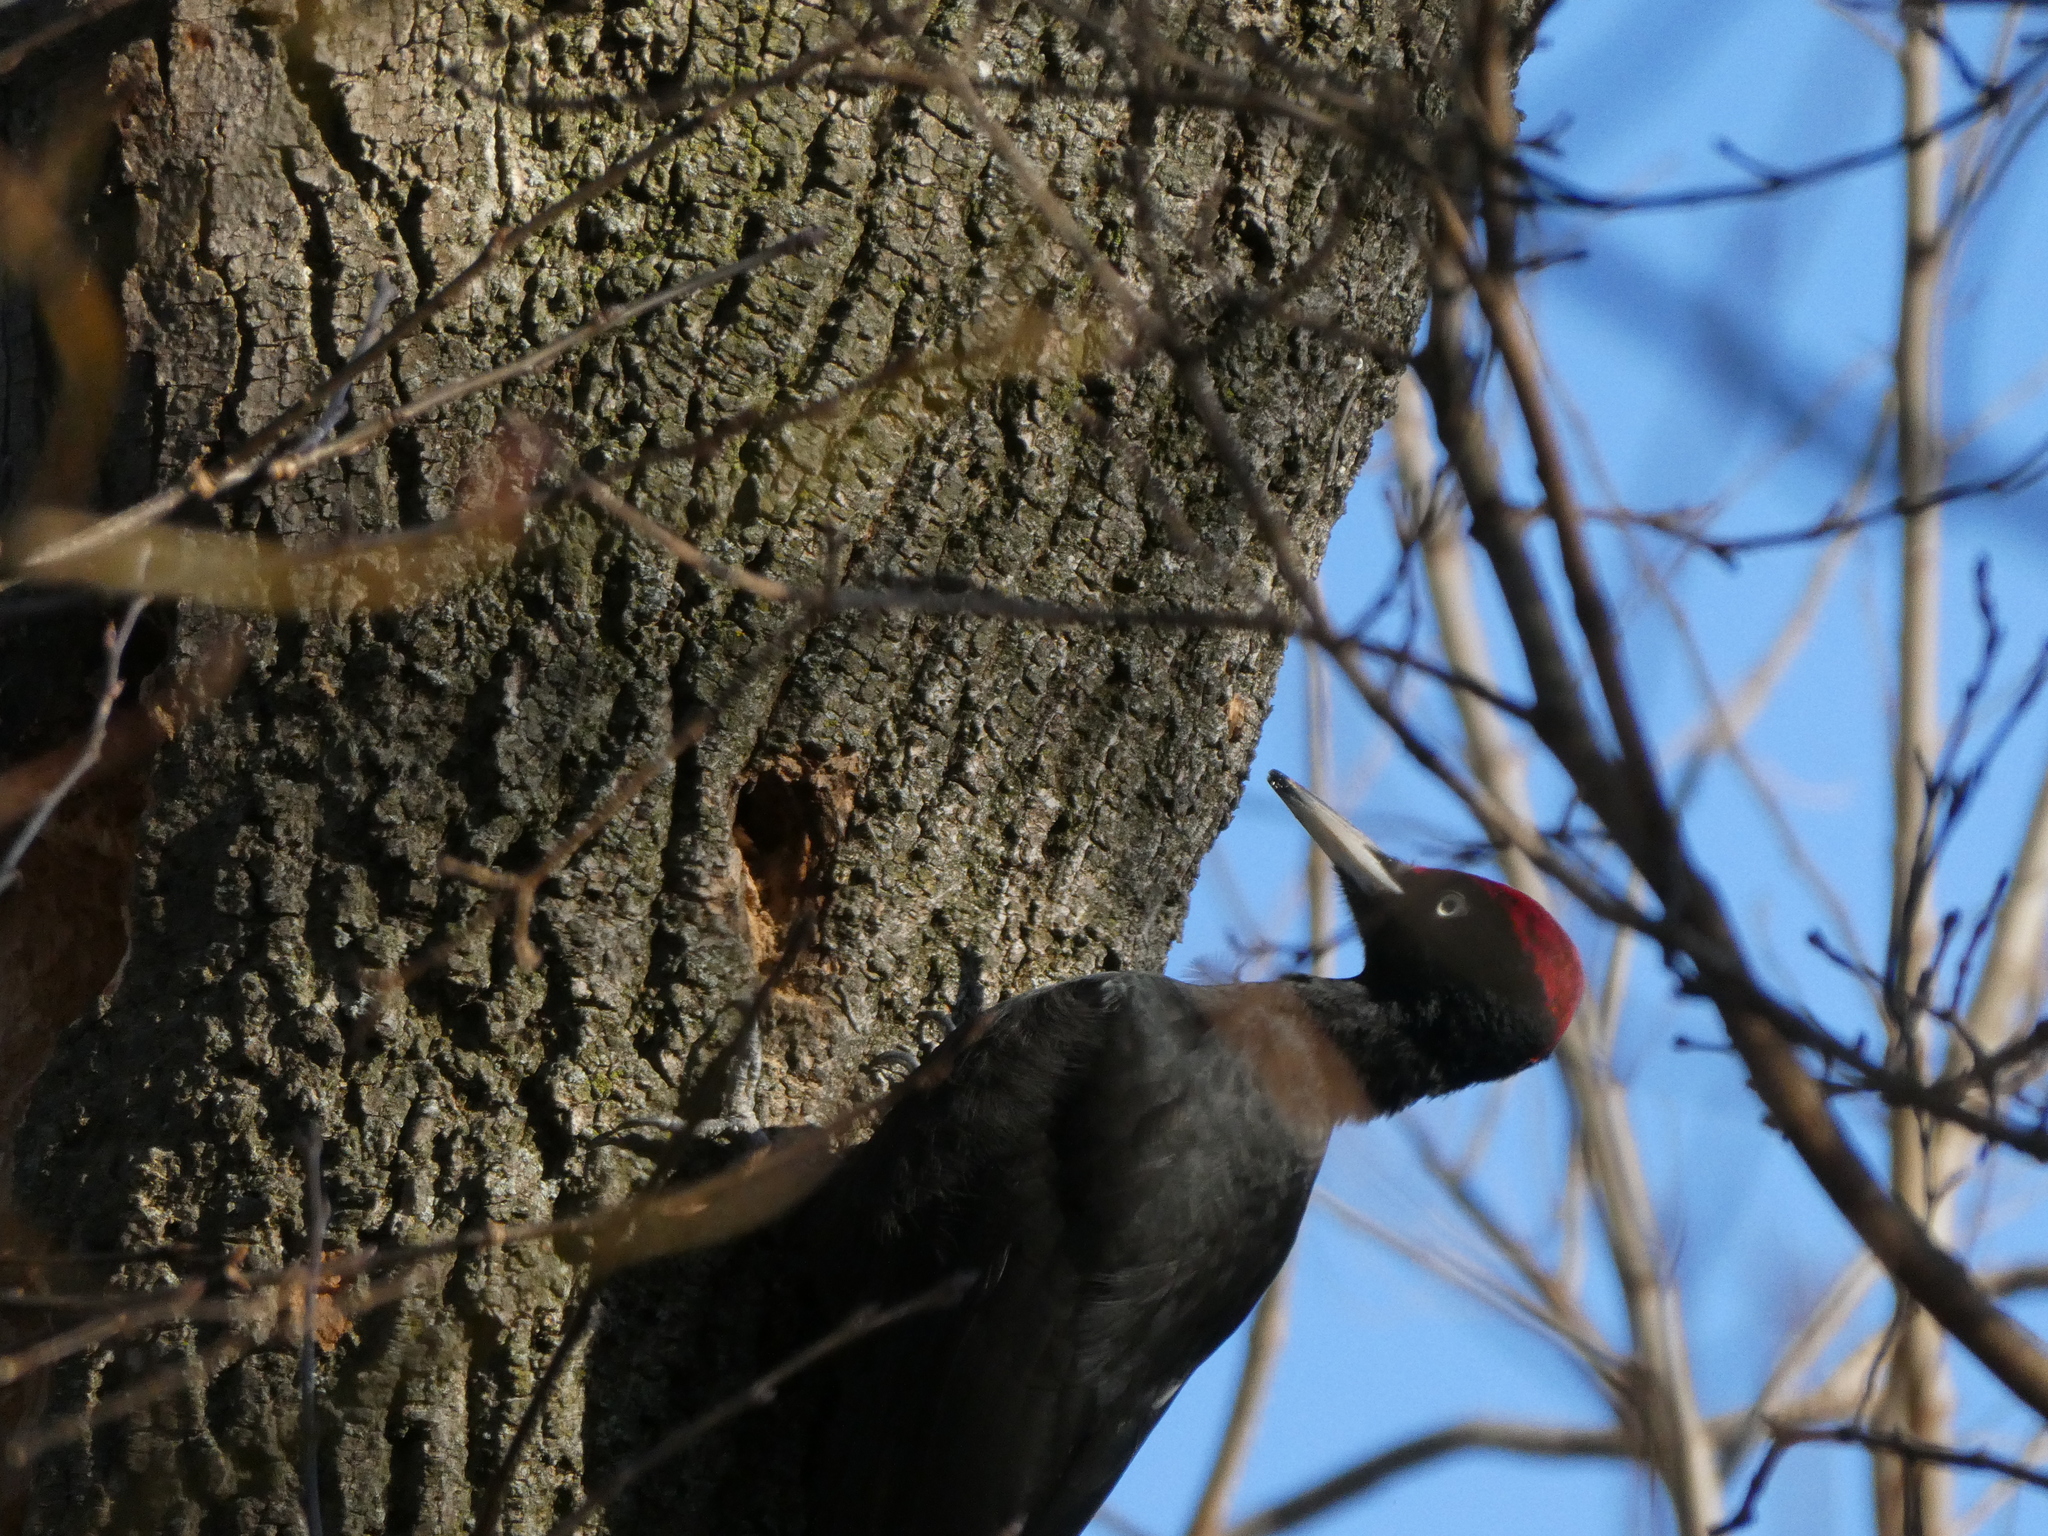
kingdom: Animalia
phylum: Chordata
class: Aves
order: Piciformes
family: Picidae
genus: Dryocopus
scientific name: Dryocopus martius
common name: Black woodpecker
